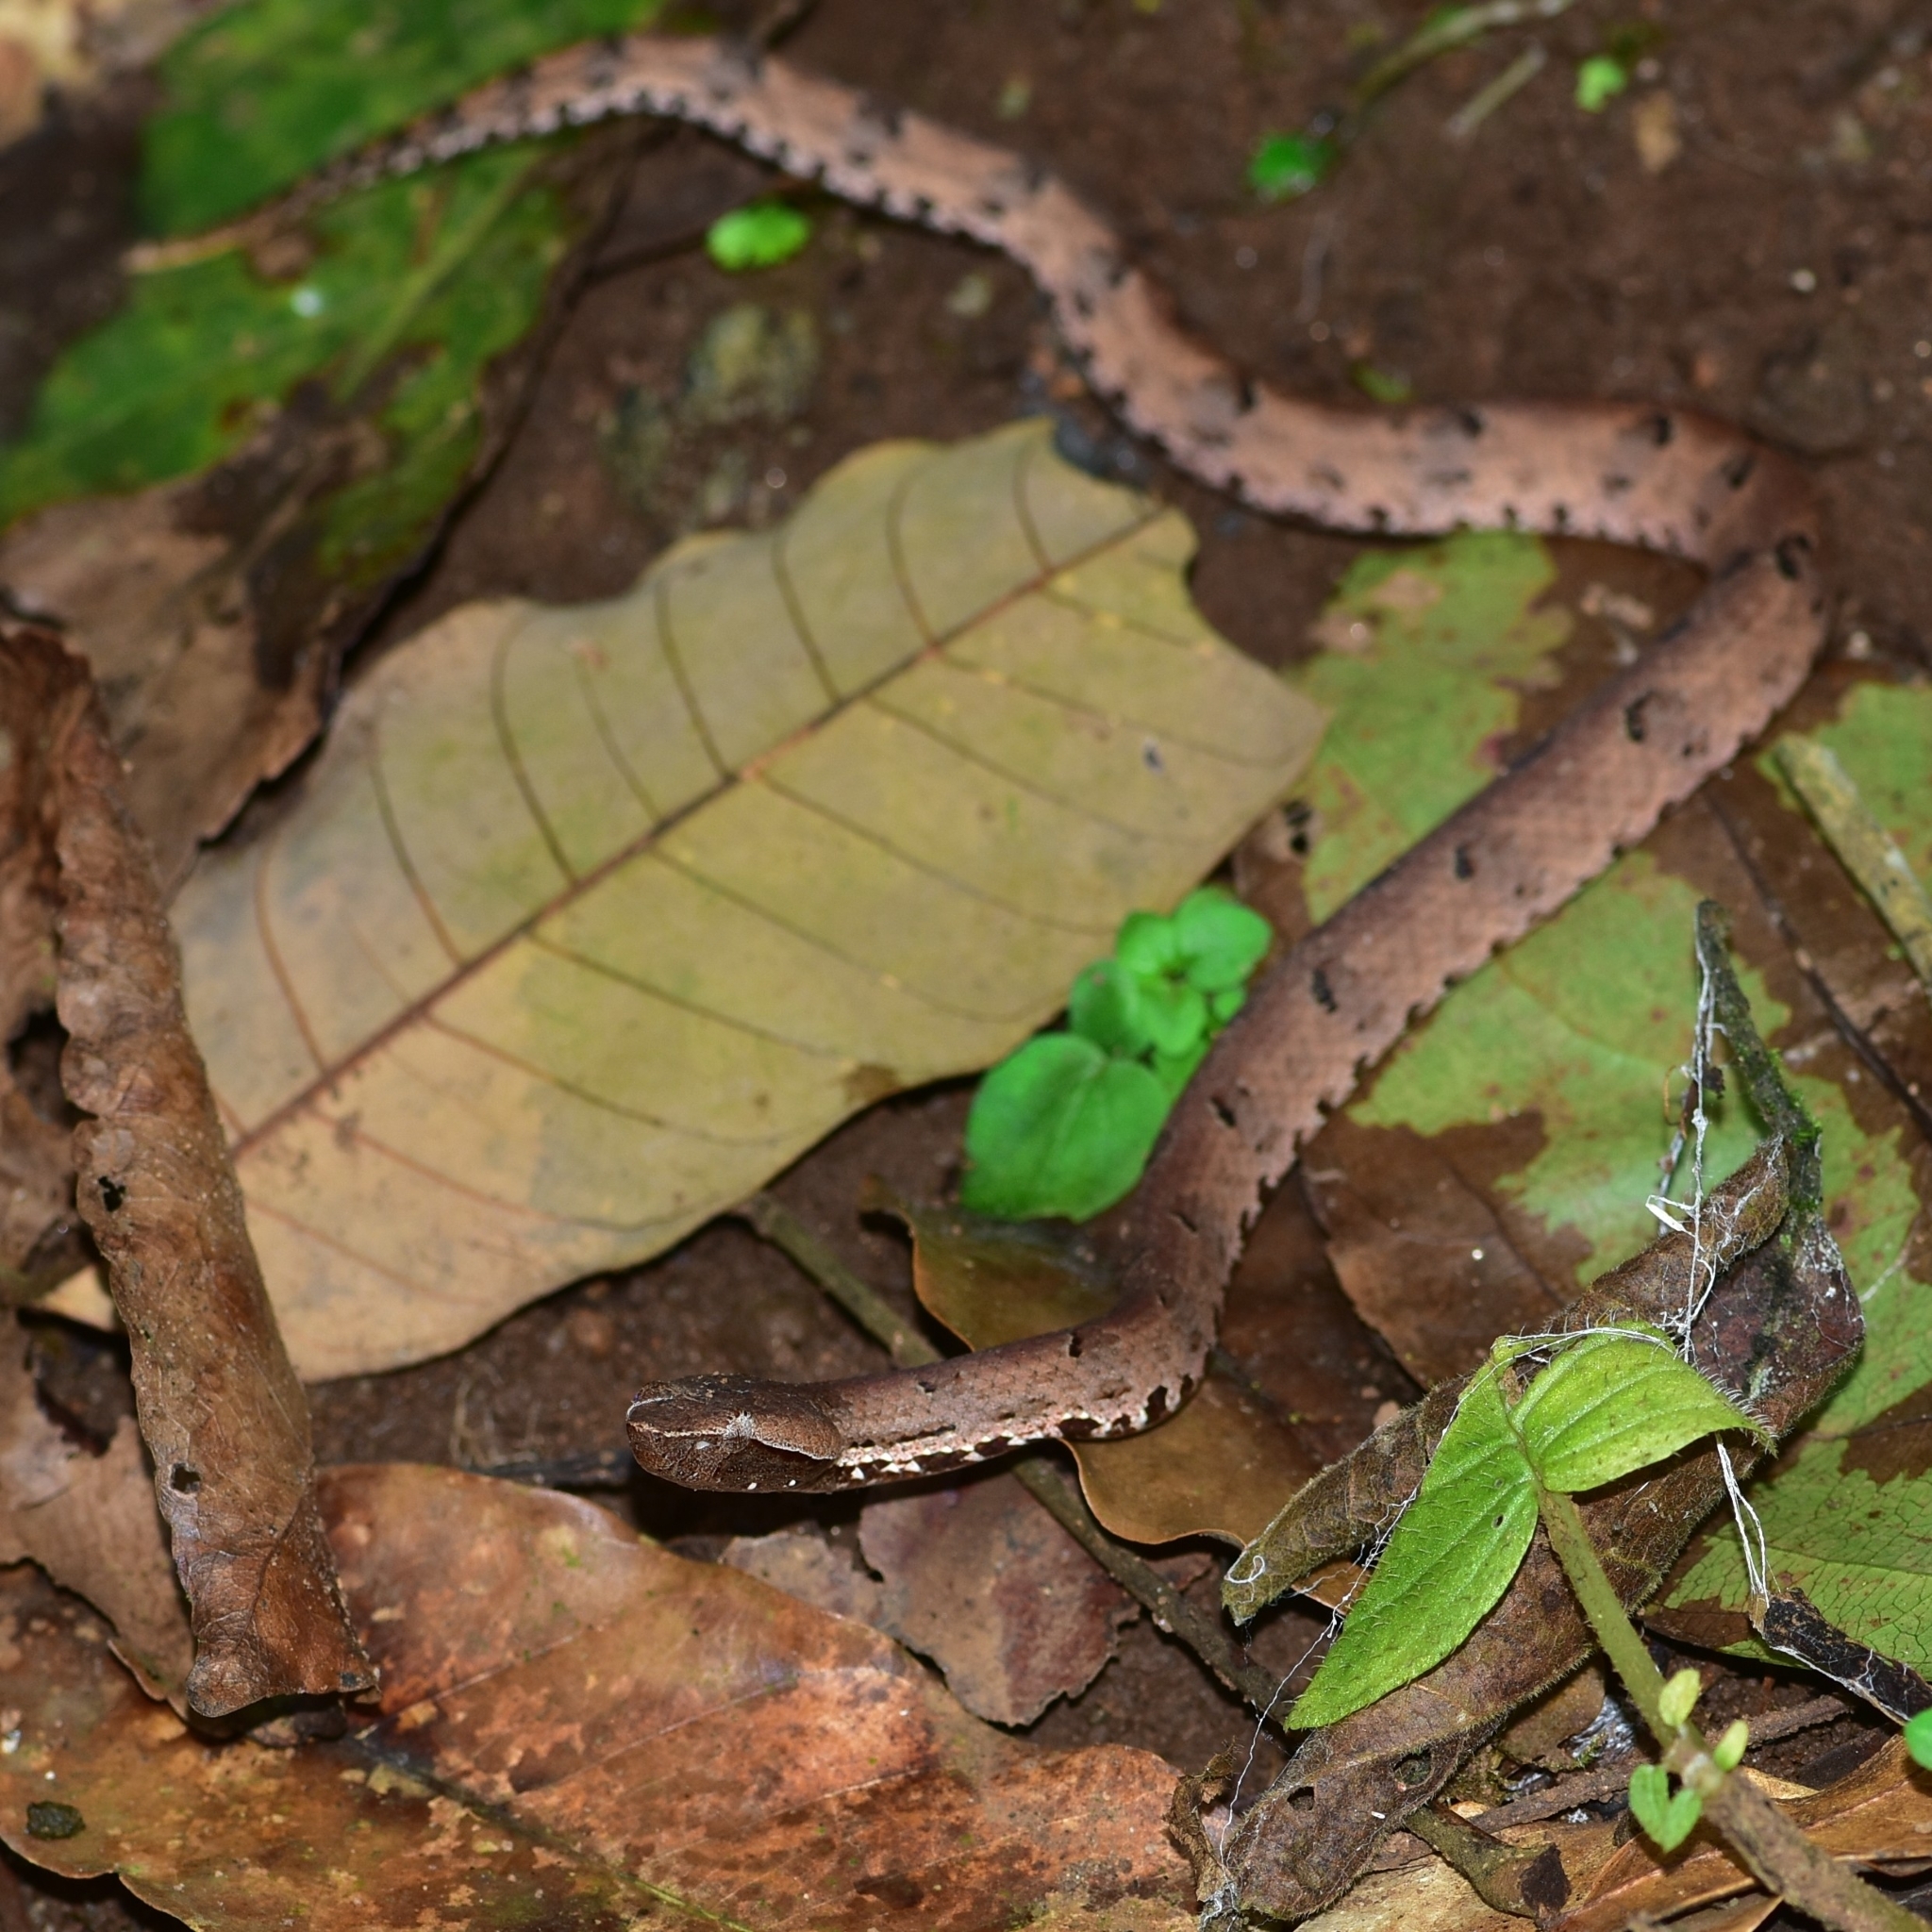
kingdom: Animalia
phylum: Chordata
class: Squamata
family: Viperidae
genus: Hypnale
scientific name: Hypnale hypnale
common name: Hump-nosed moccasin
